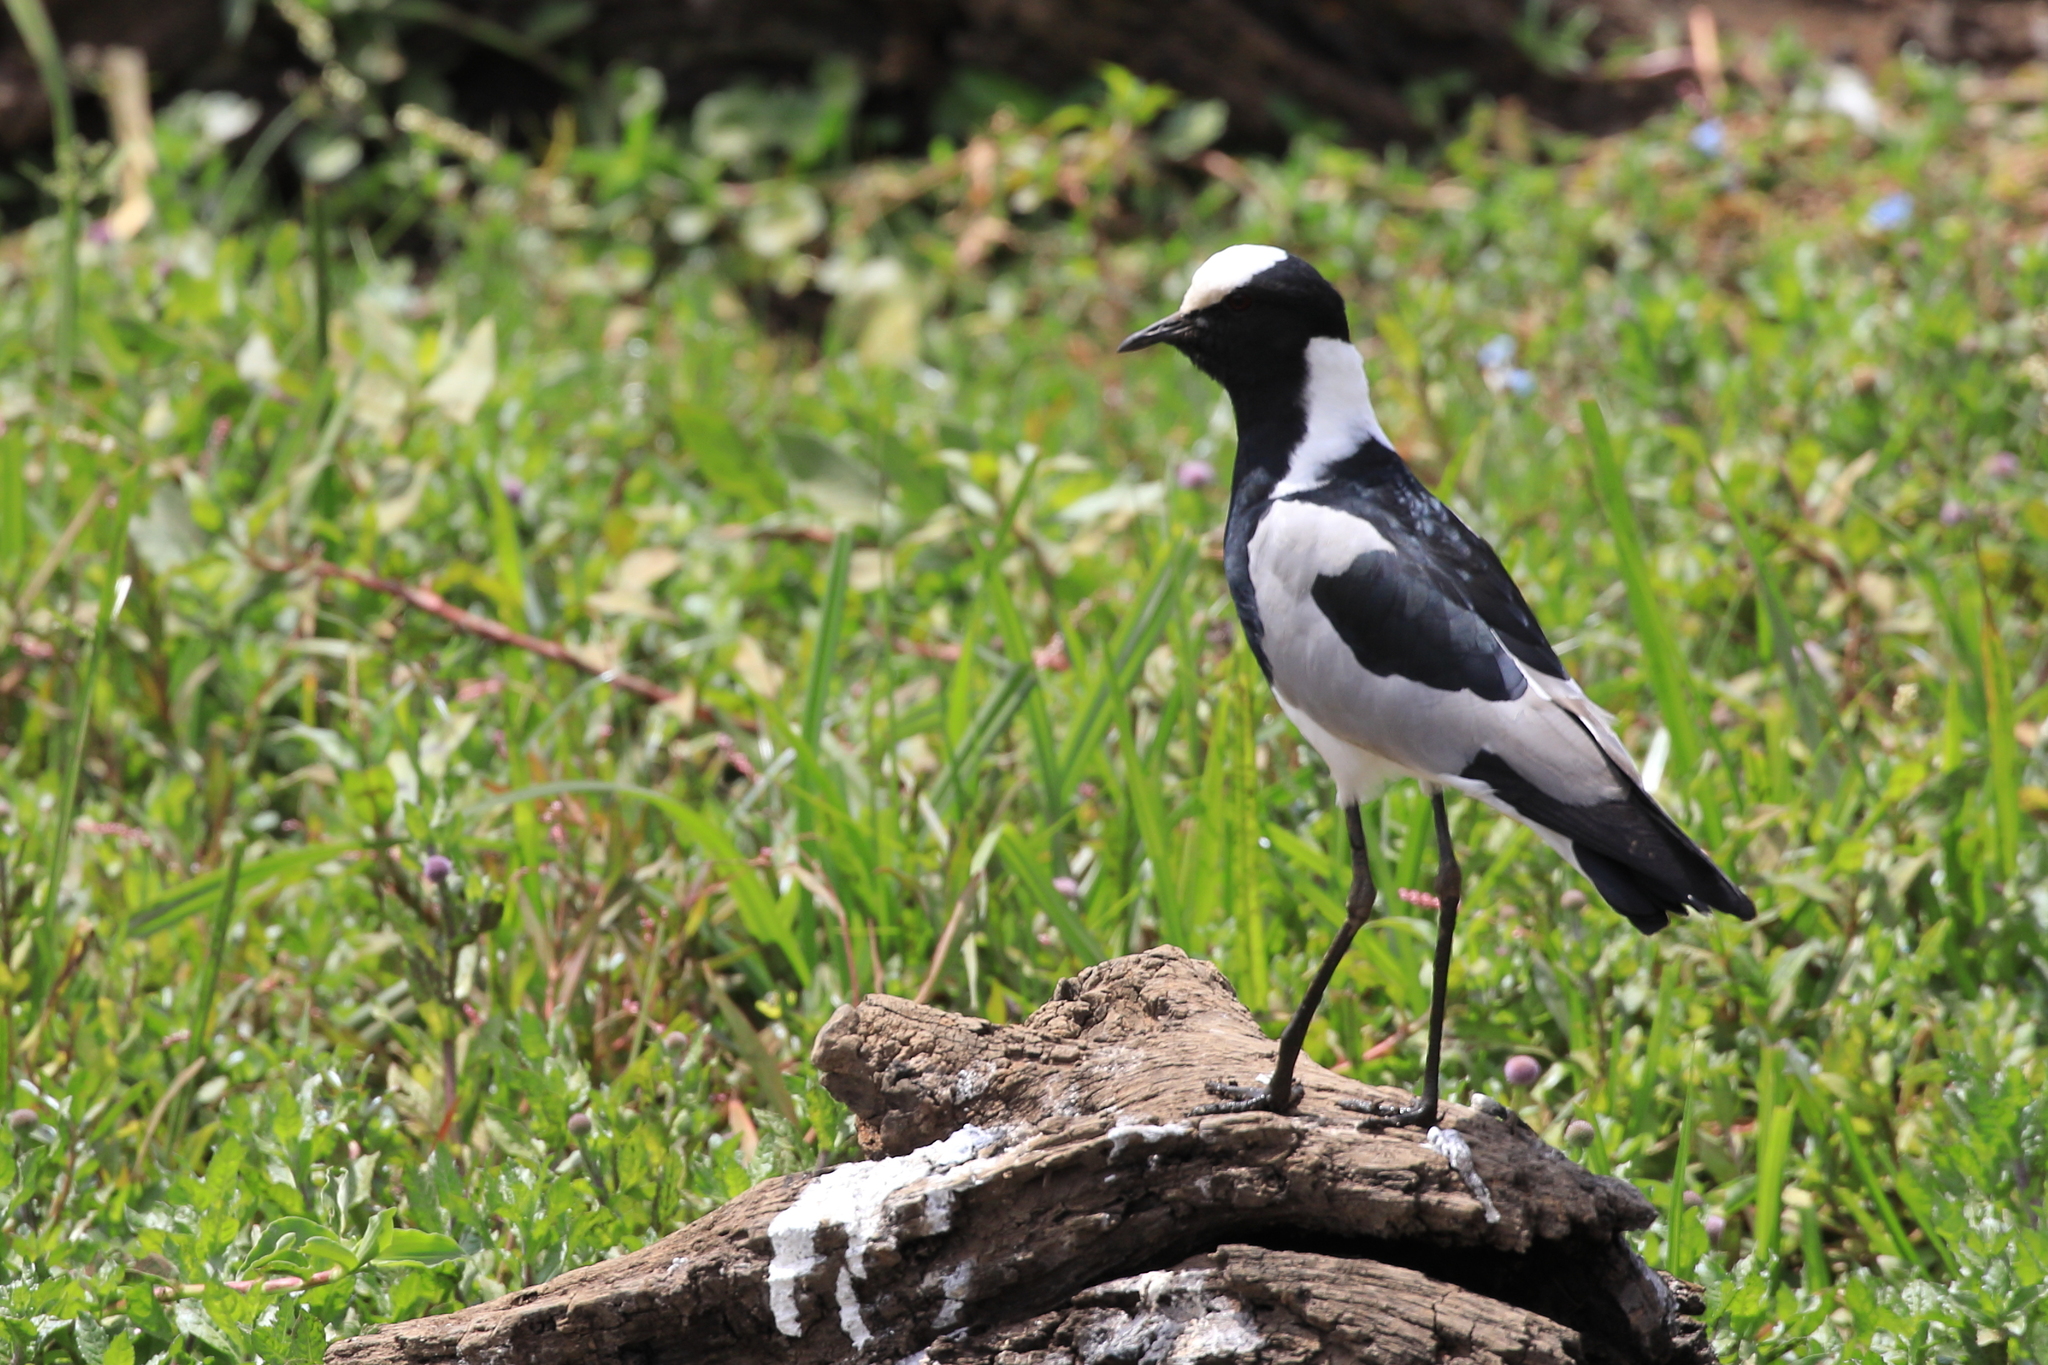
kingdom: Animalia
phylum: Chordata
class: Aves
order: Charadriiformes
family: Charadriidae
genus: Vanellus
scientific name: Vanellus armatus
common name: Blacksmith lapwing
